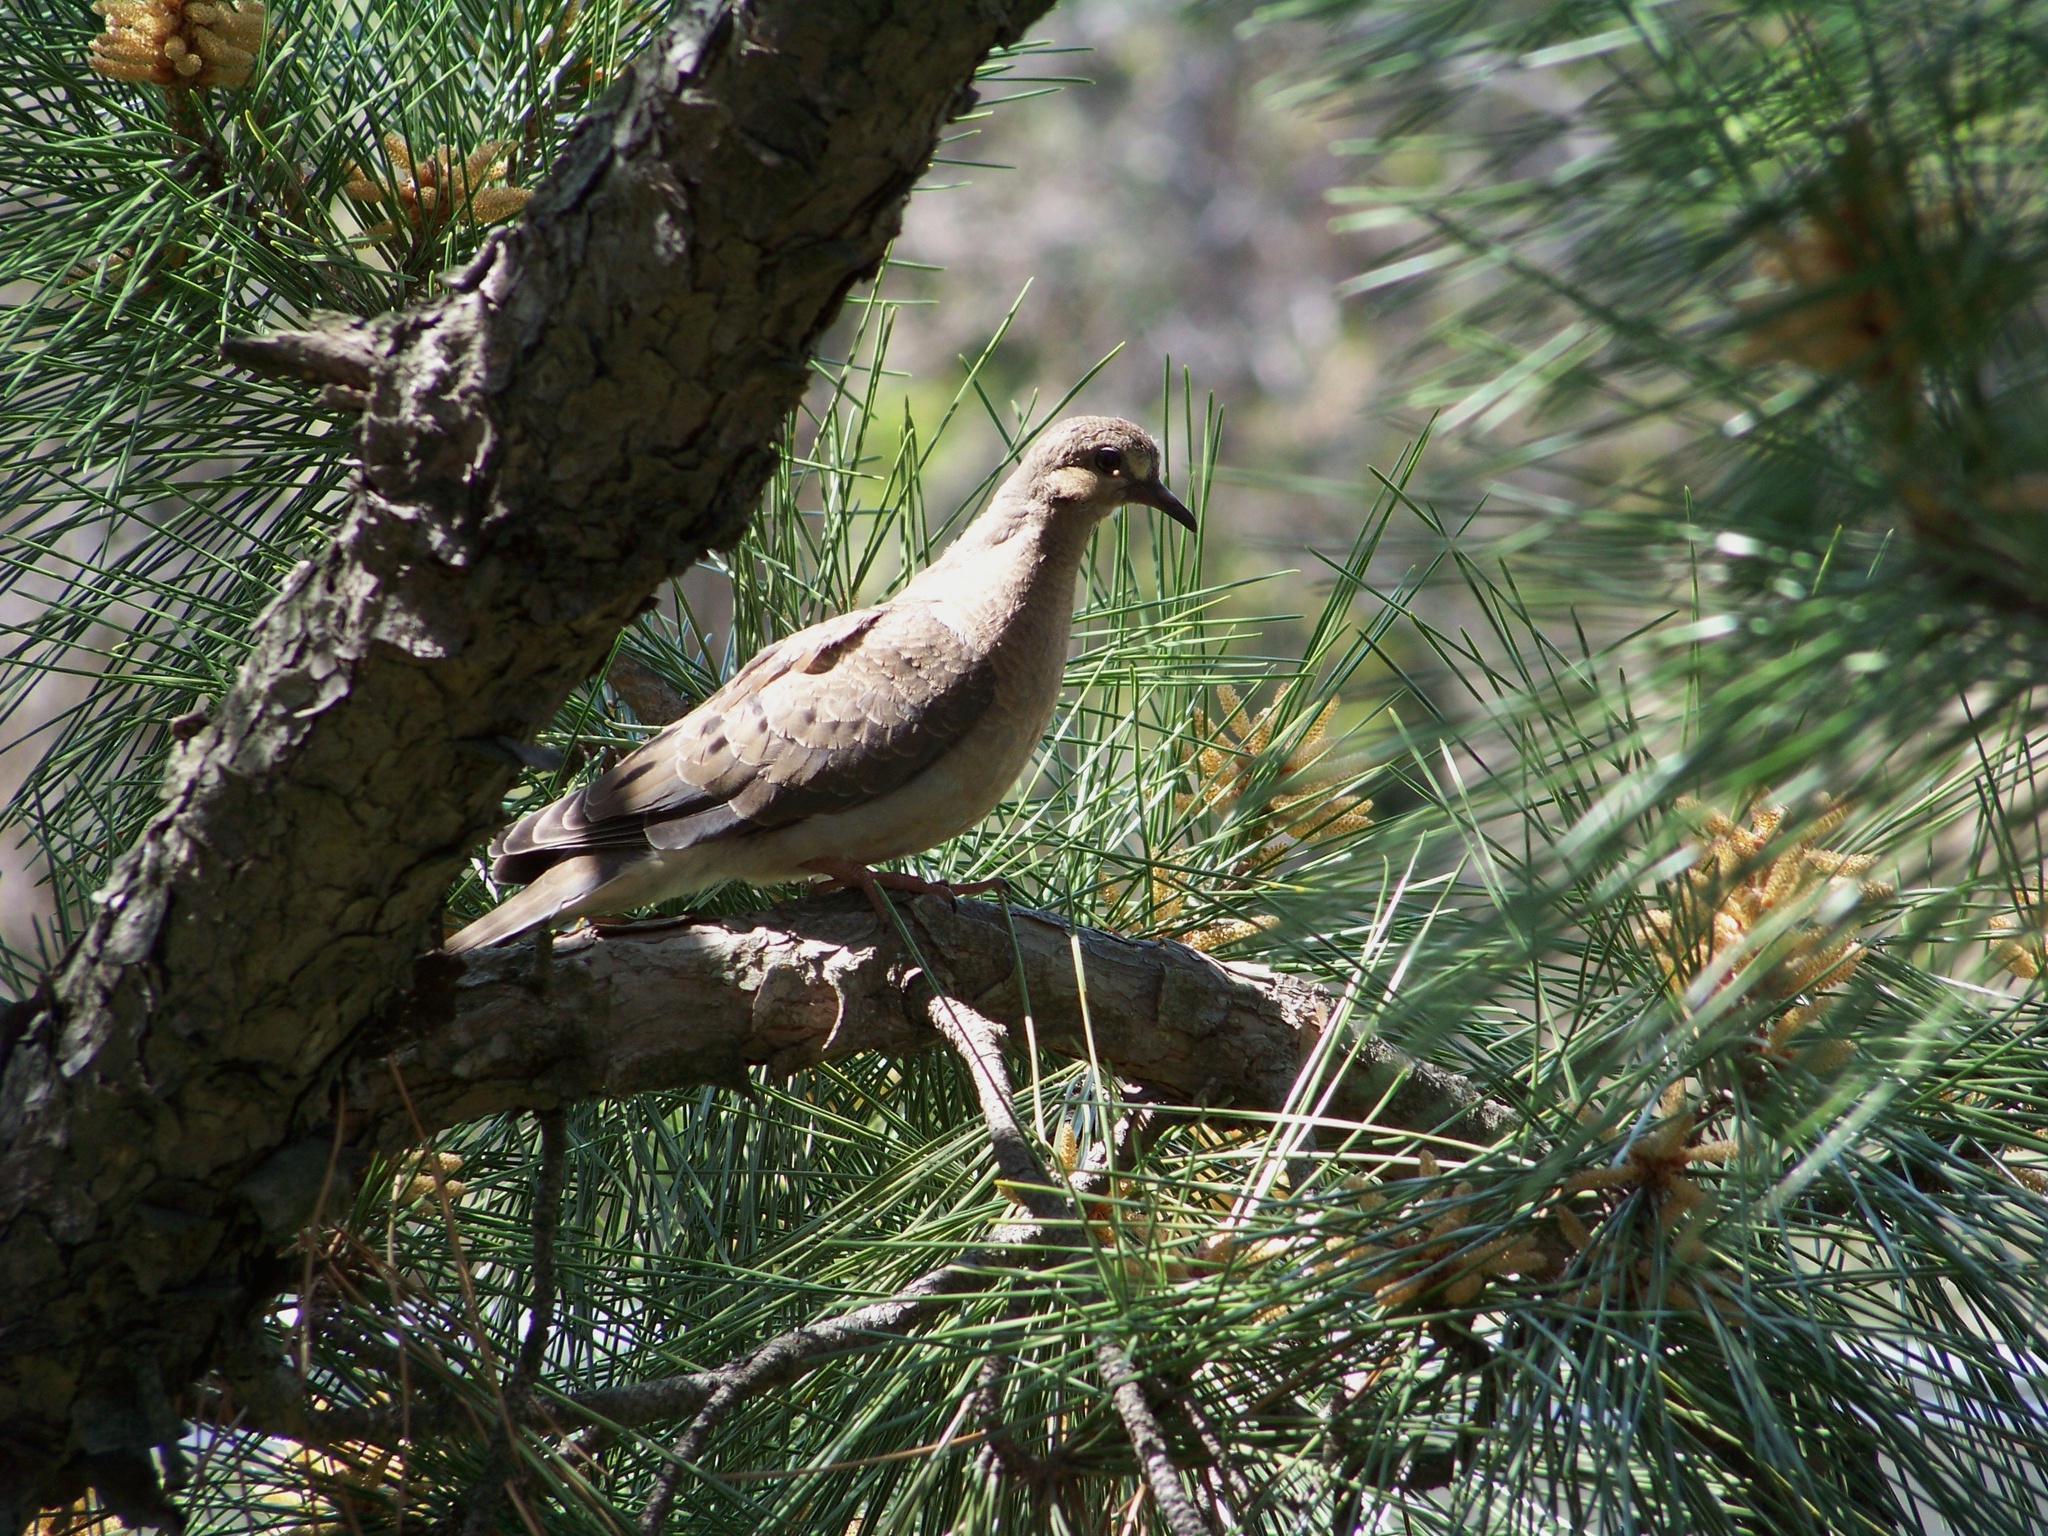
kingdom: Animalia
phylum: Chordata
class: Aves
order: Columbiformes
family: Columbidae
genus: Zenaida
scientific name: Zenaida macroura
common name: Mourning dove
